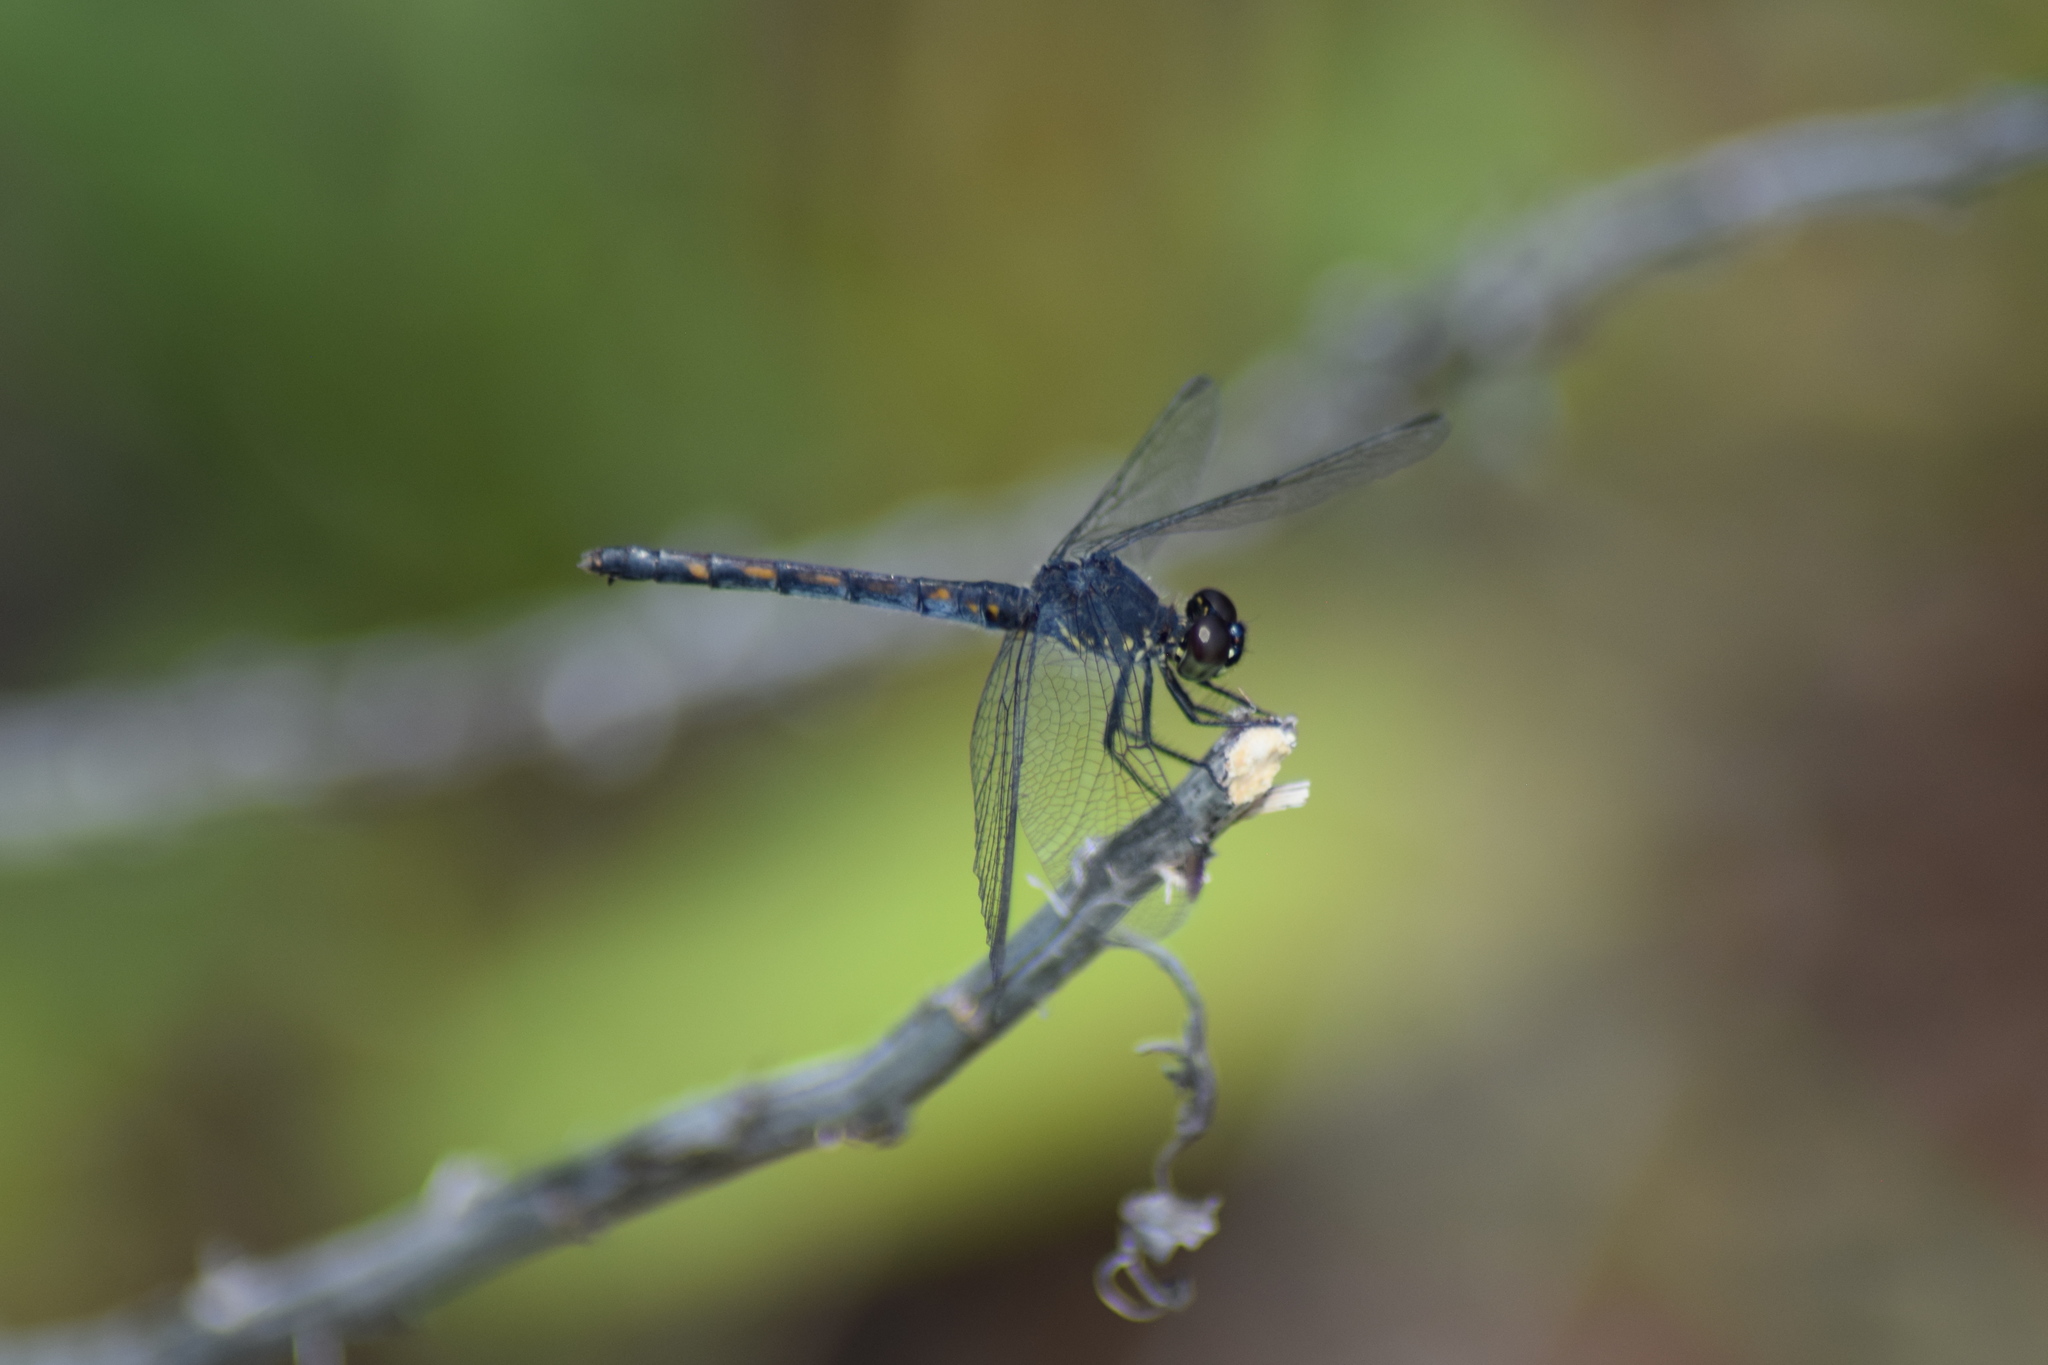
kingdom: Animalia
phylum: Arthropoda
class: Insecta
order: Odonata
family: Libellulidae
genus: Erythrodiplax
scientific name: Erythrodiplax berenice
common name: Seaside dragonlet
